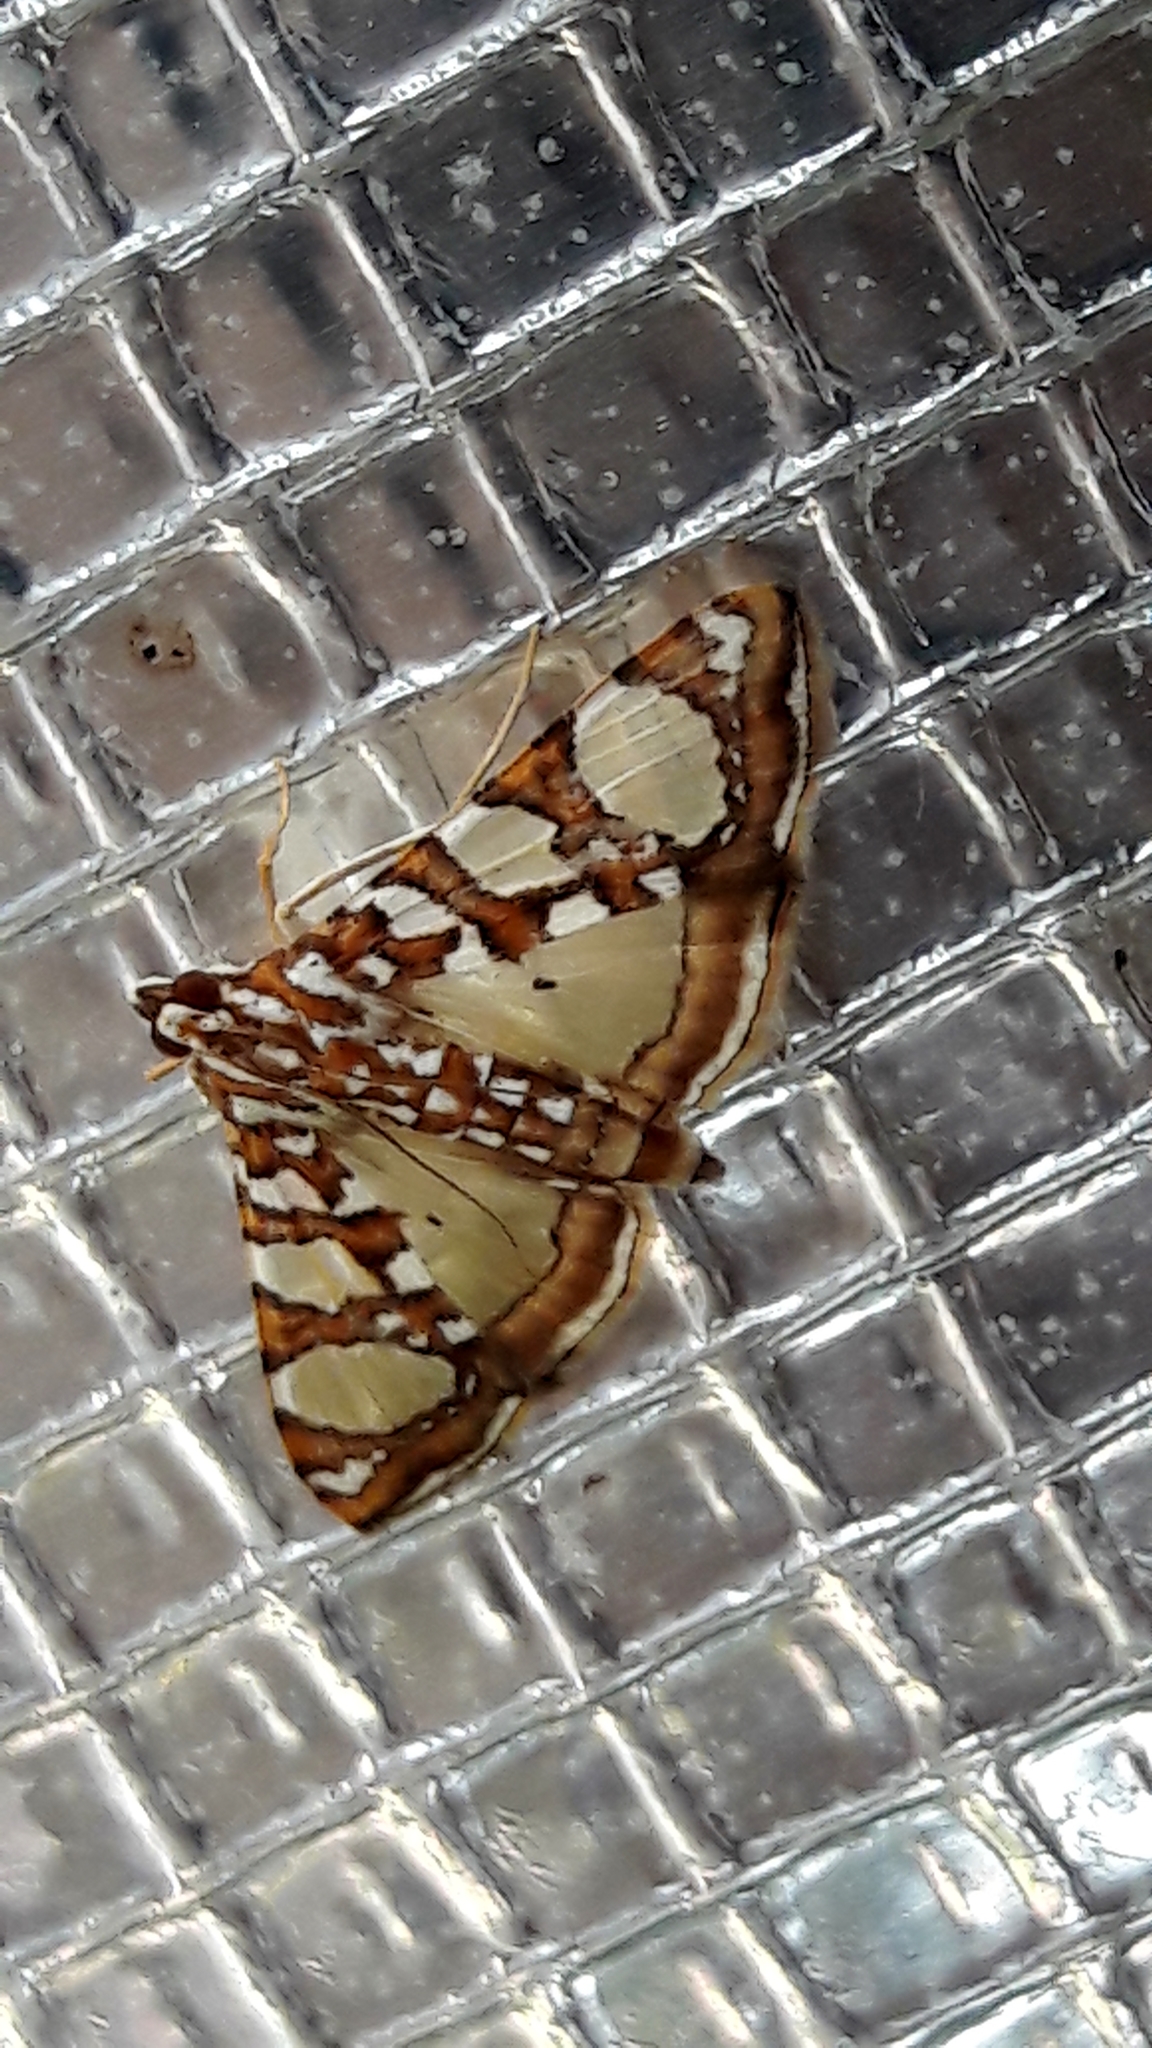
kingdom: Animalia
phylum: Arthropoda
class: Insecta
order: Lepidoptera
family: Crambidae
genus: Glyphodes
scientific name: Glyphodes sibillalis
